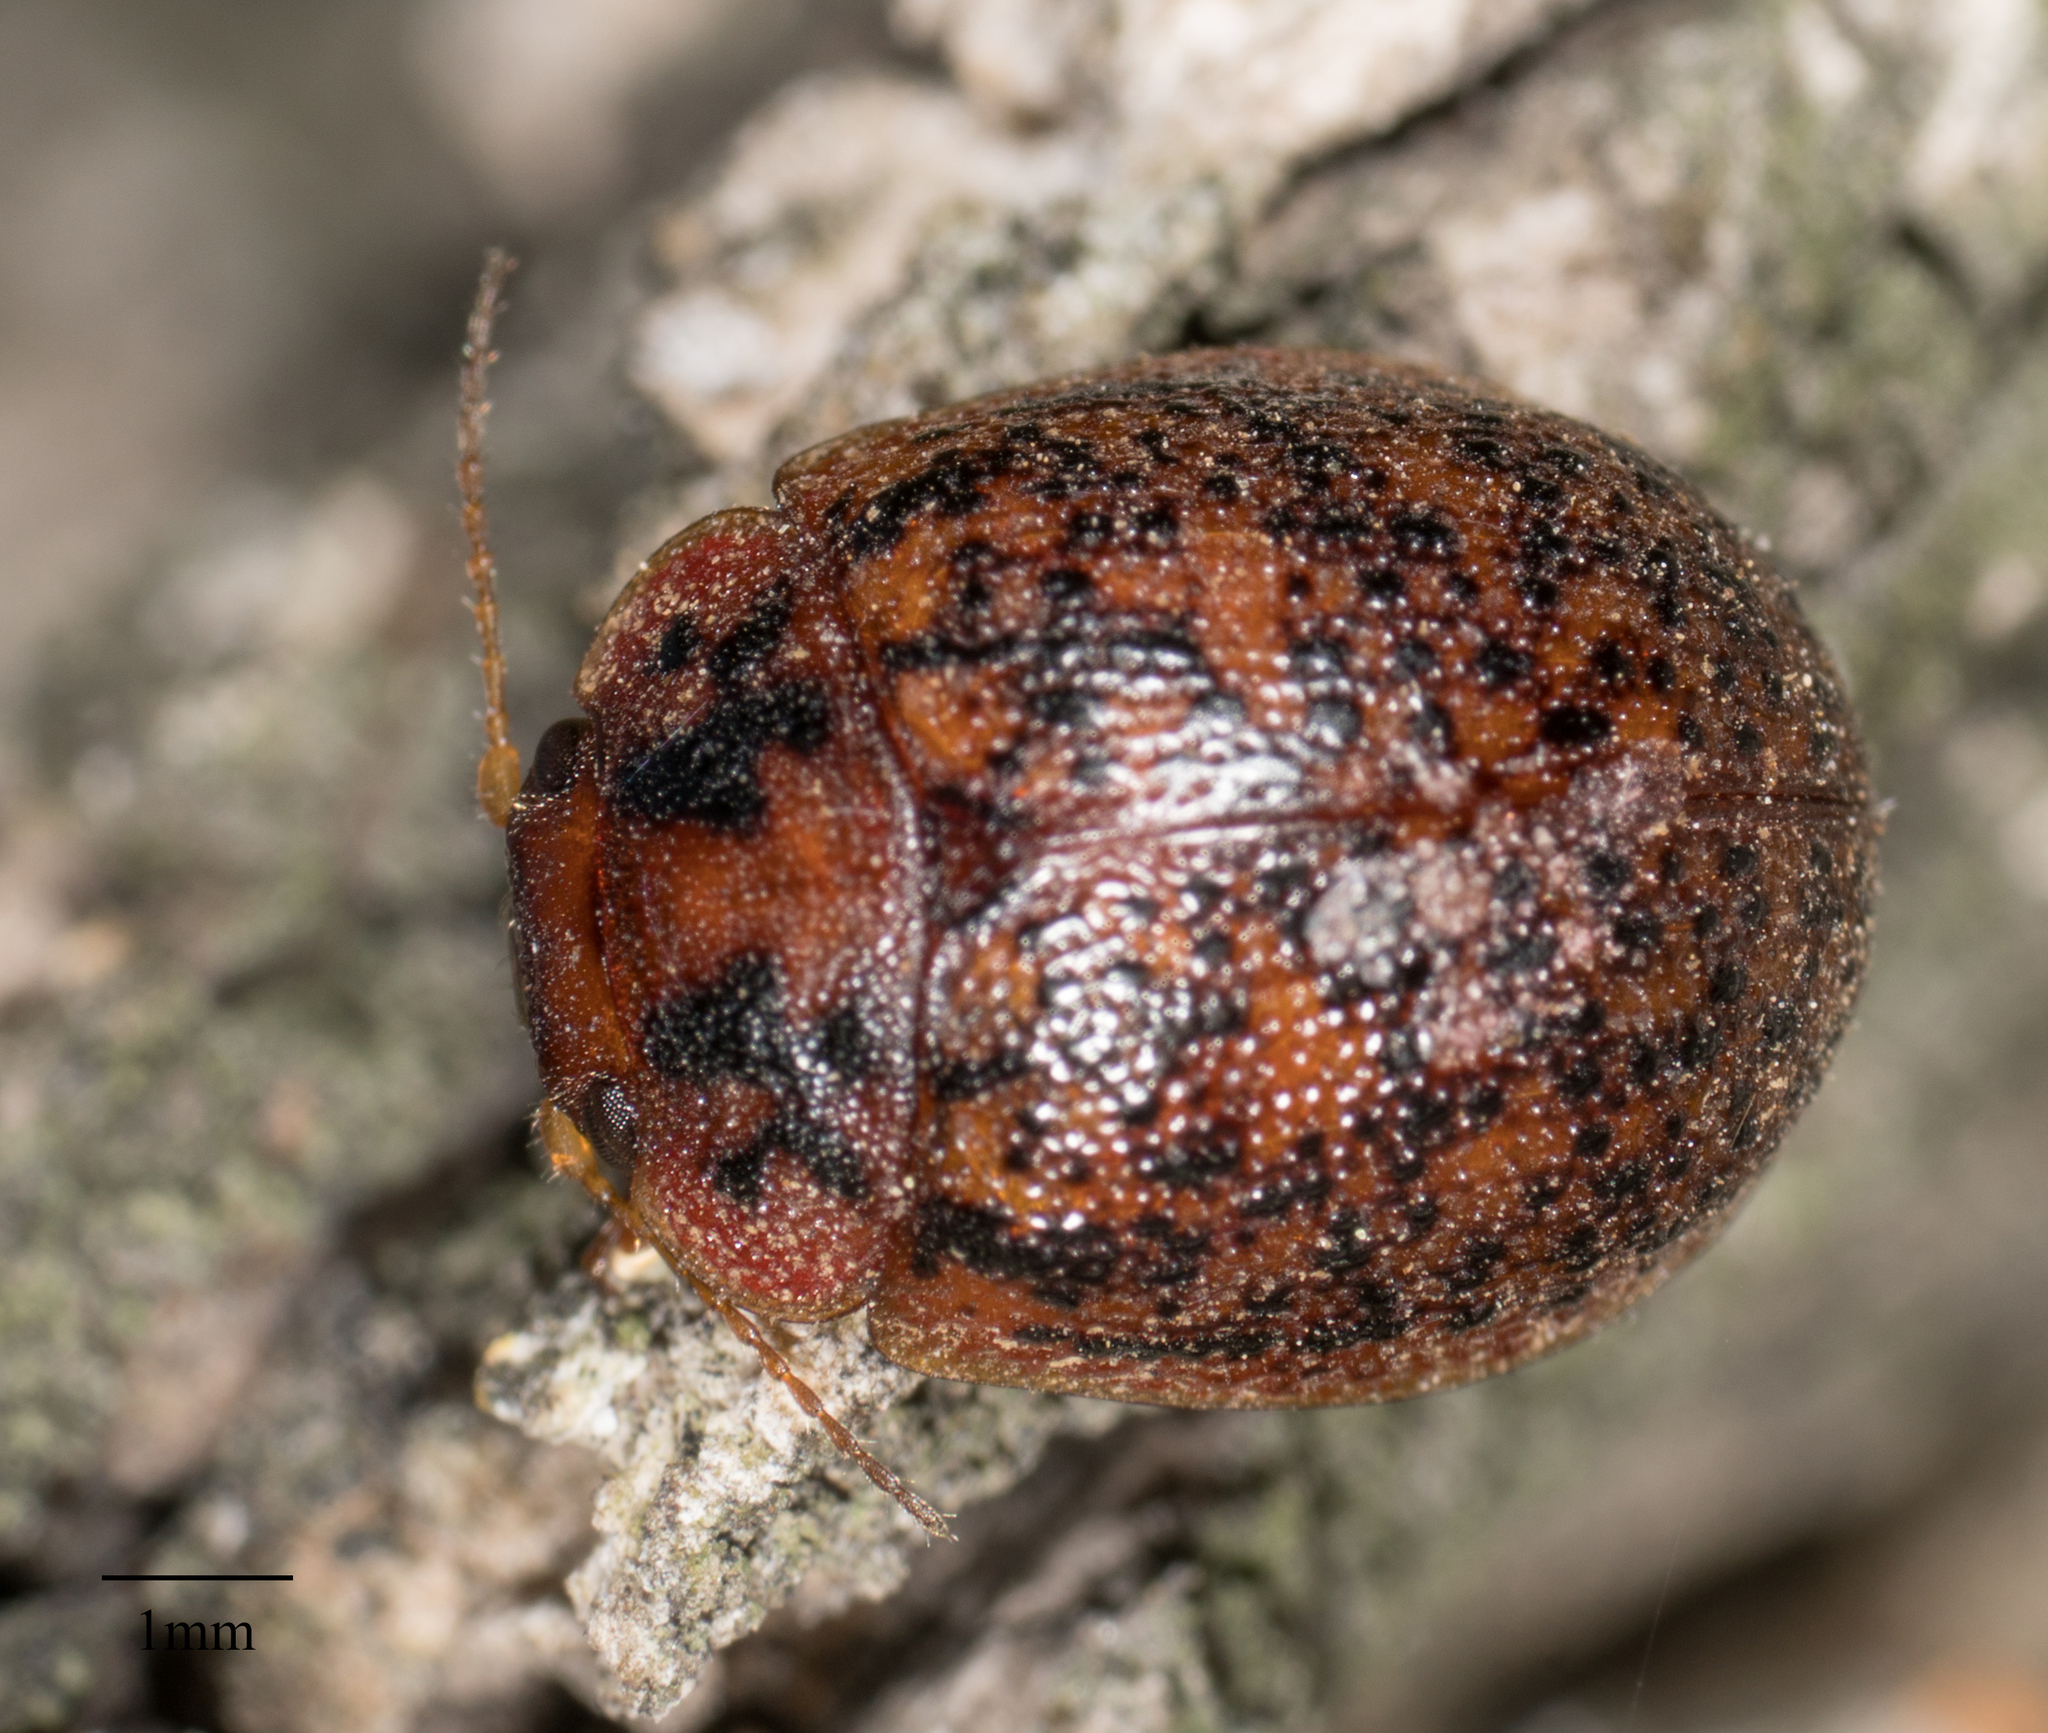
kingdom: Animalia
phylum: Arthropoda
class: Insecta
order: Coleoptera
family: Chrysomelidae
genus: Trachymela
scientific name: Trachymela sloanei
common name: Australian tortoise beetle
